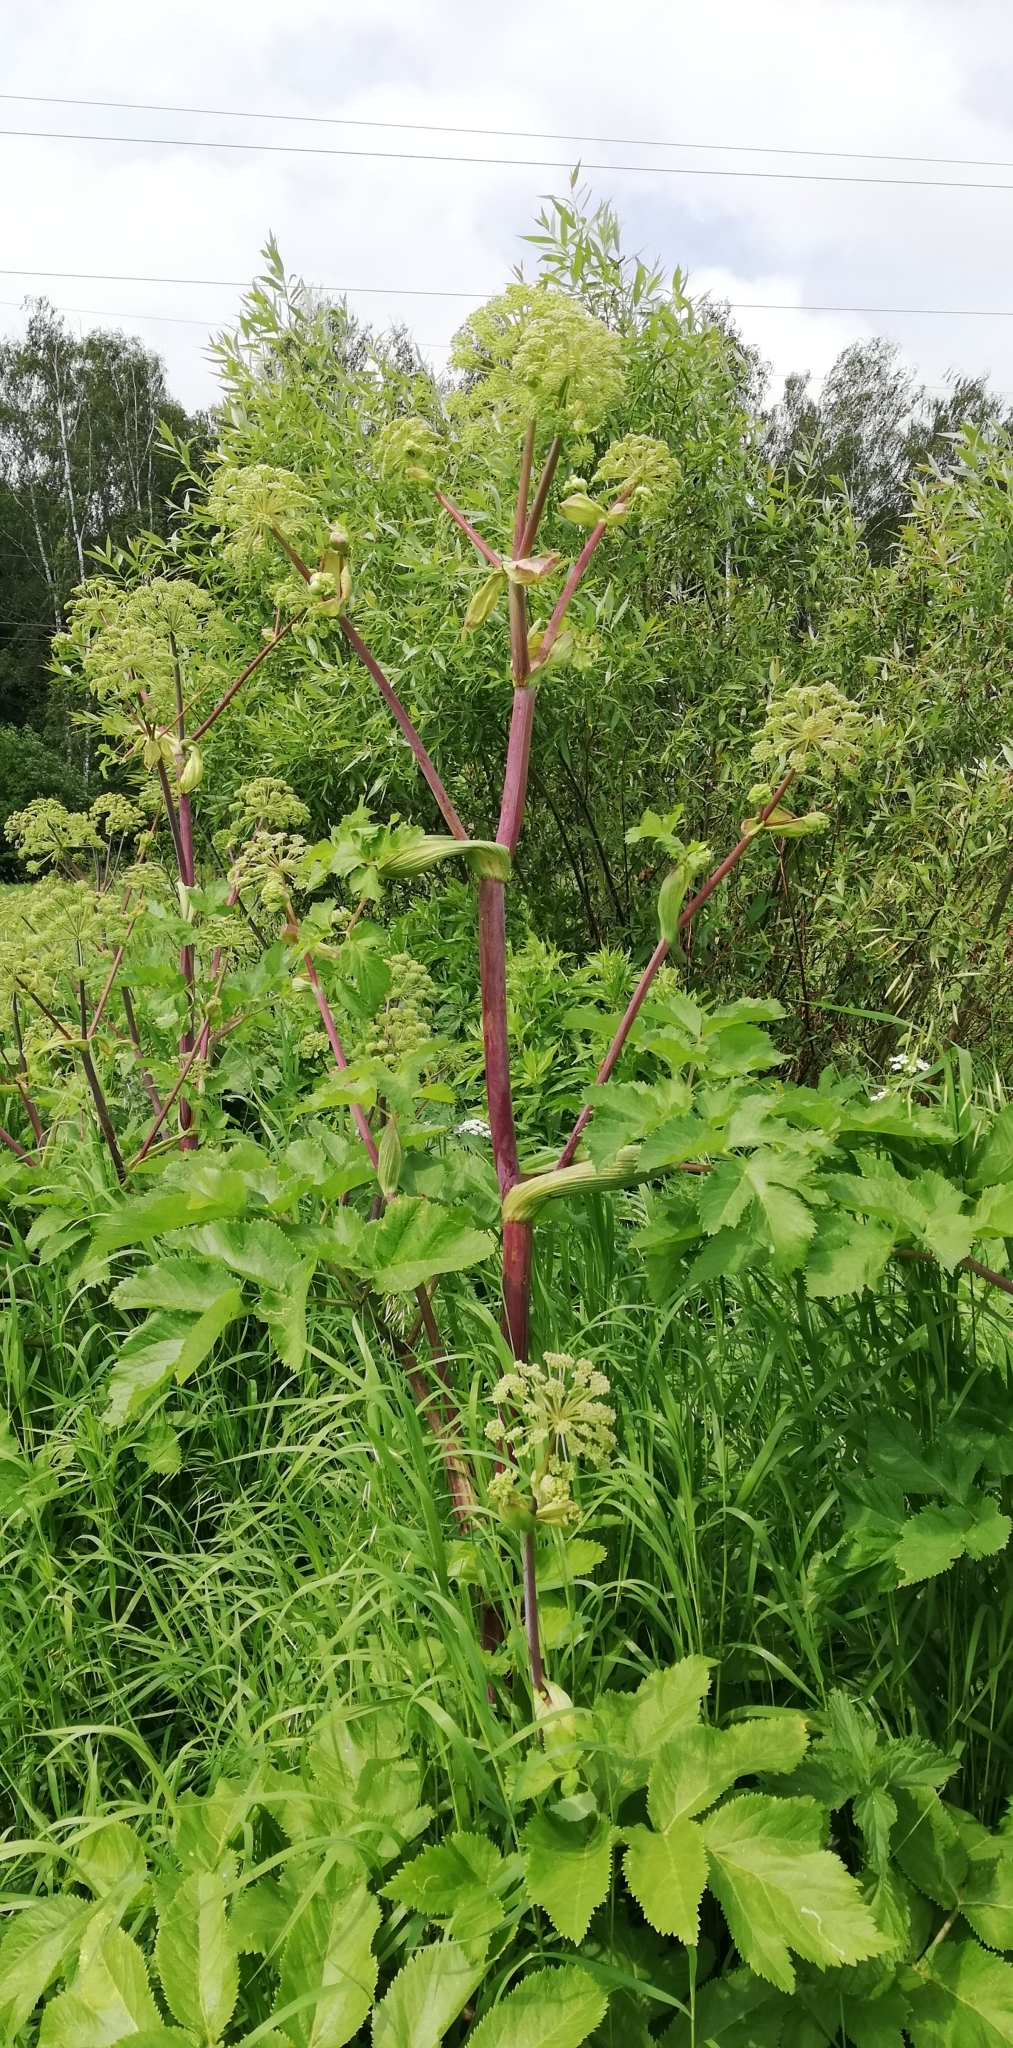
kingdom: Plantae
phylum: Tracheophyta
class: Magnoliopsida
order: Apiales
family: Apiaceae
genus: Angelica
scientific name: Angelica archangelica
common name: Garden angelica
